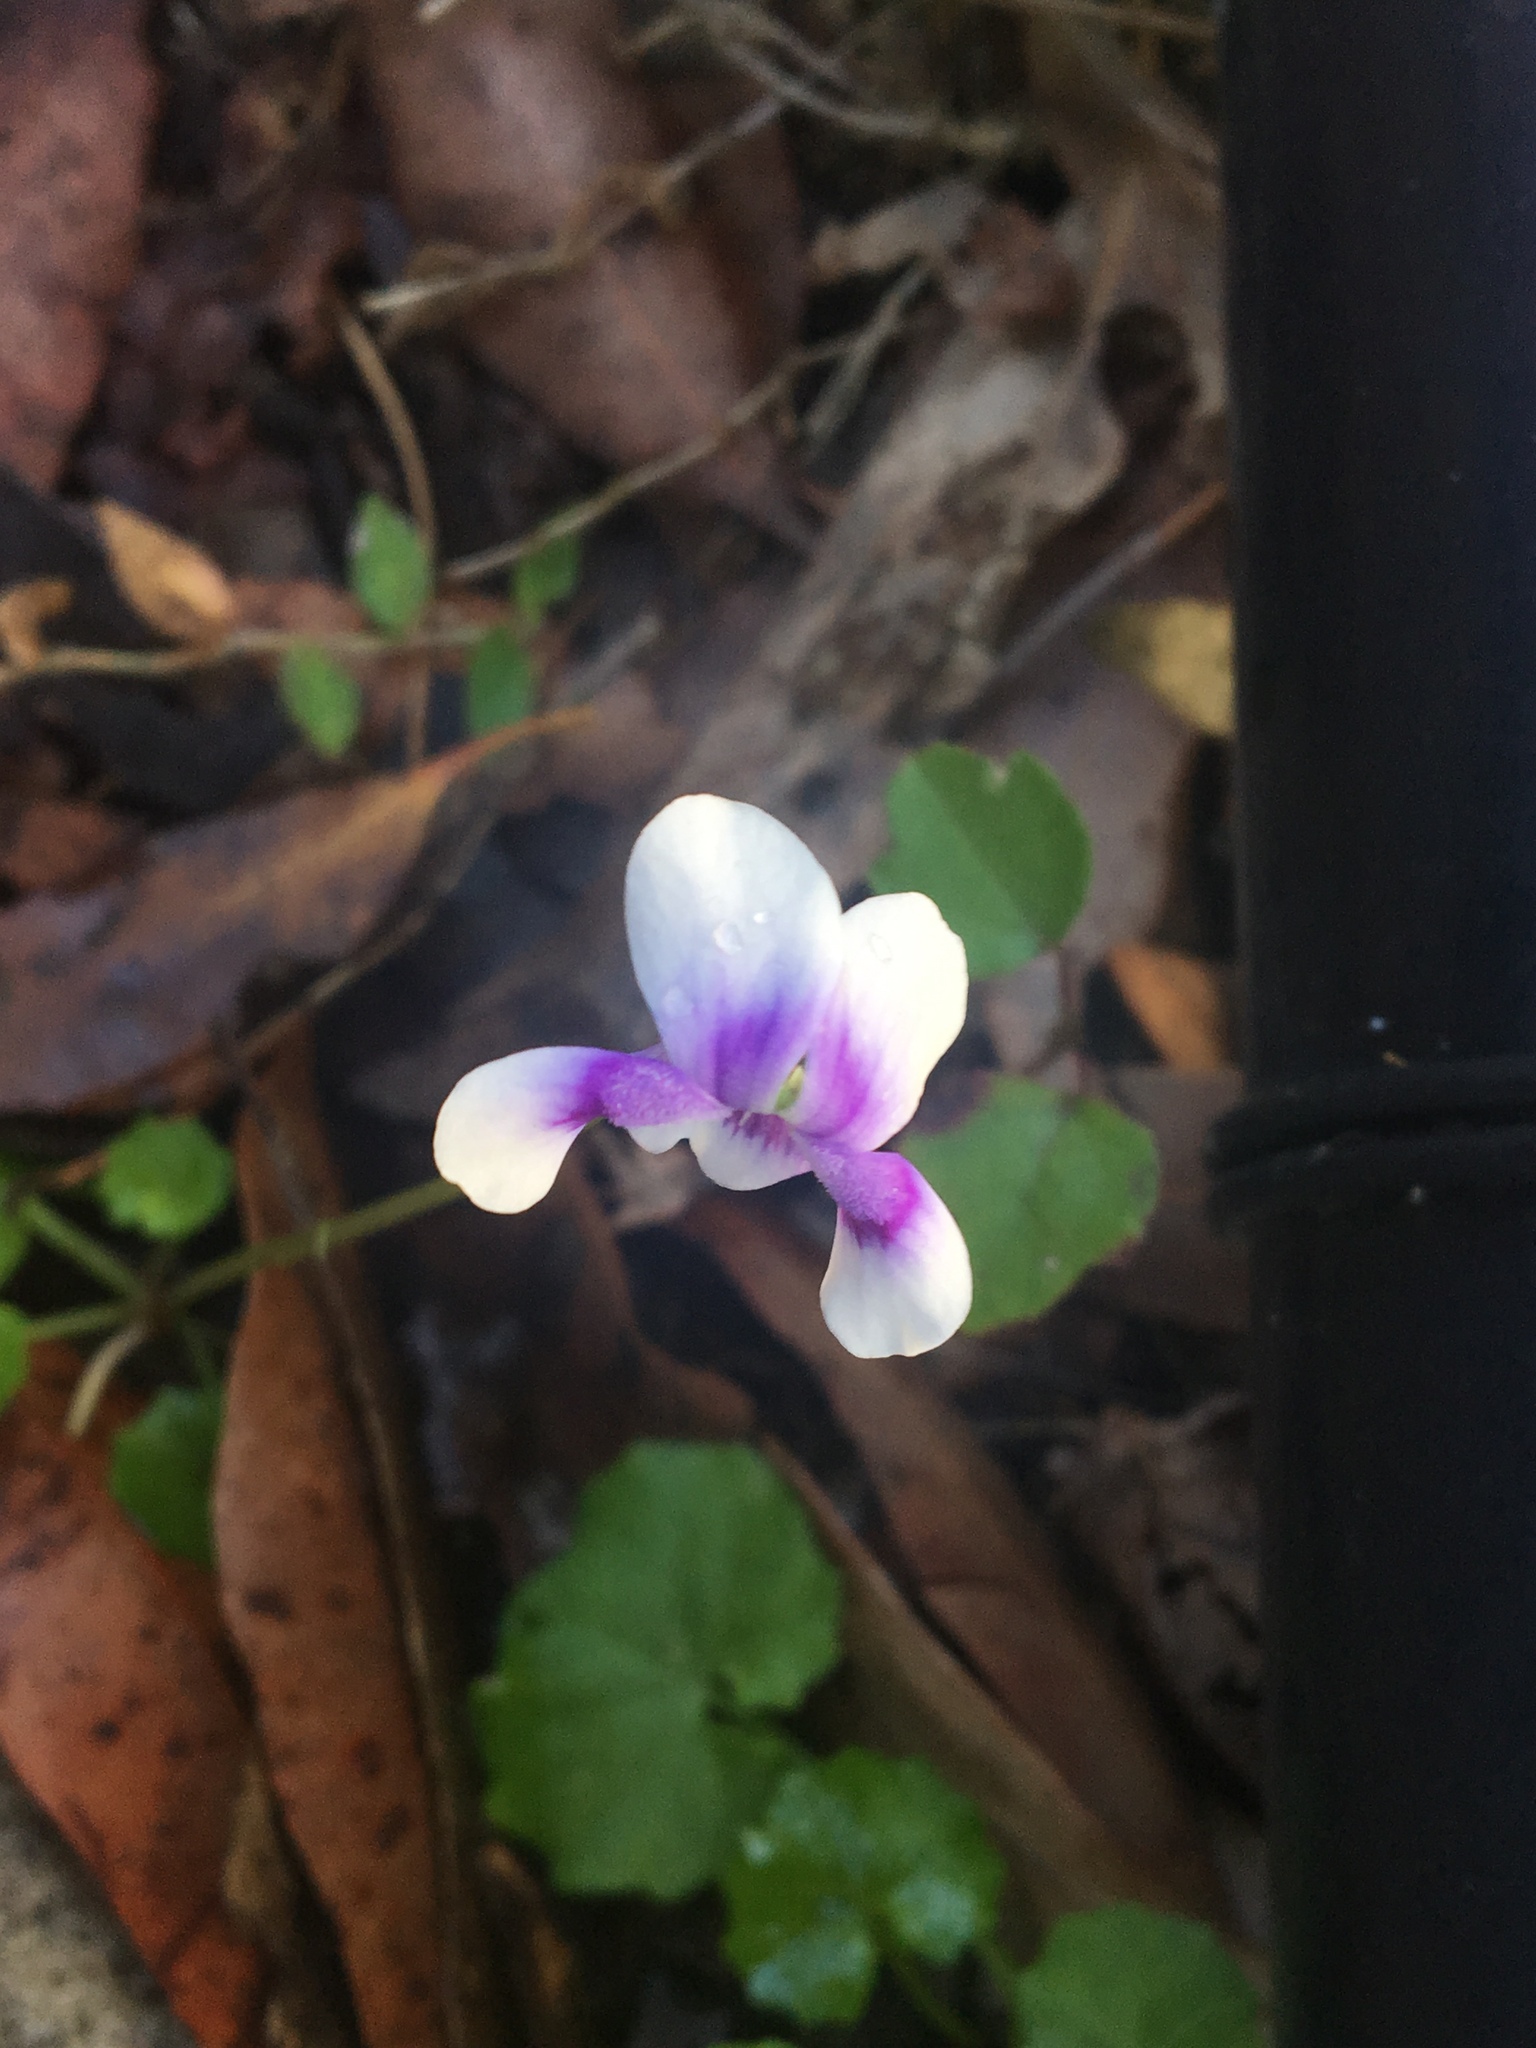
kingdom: Plantae
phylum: Tracheophyta
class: Magnoliopsida
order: Malpighiales
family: Violaceae
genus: Viola
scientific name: Viola banksii
